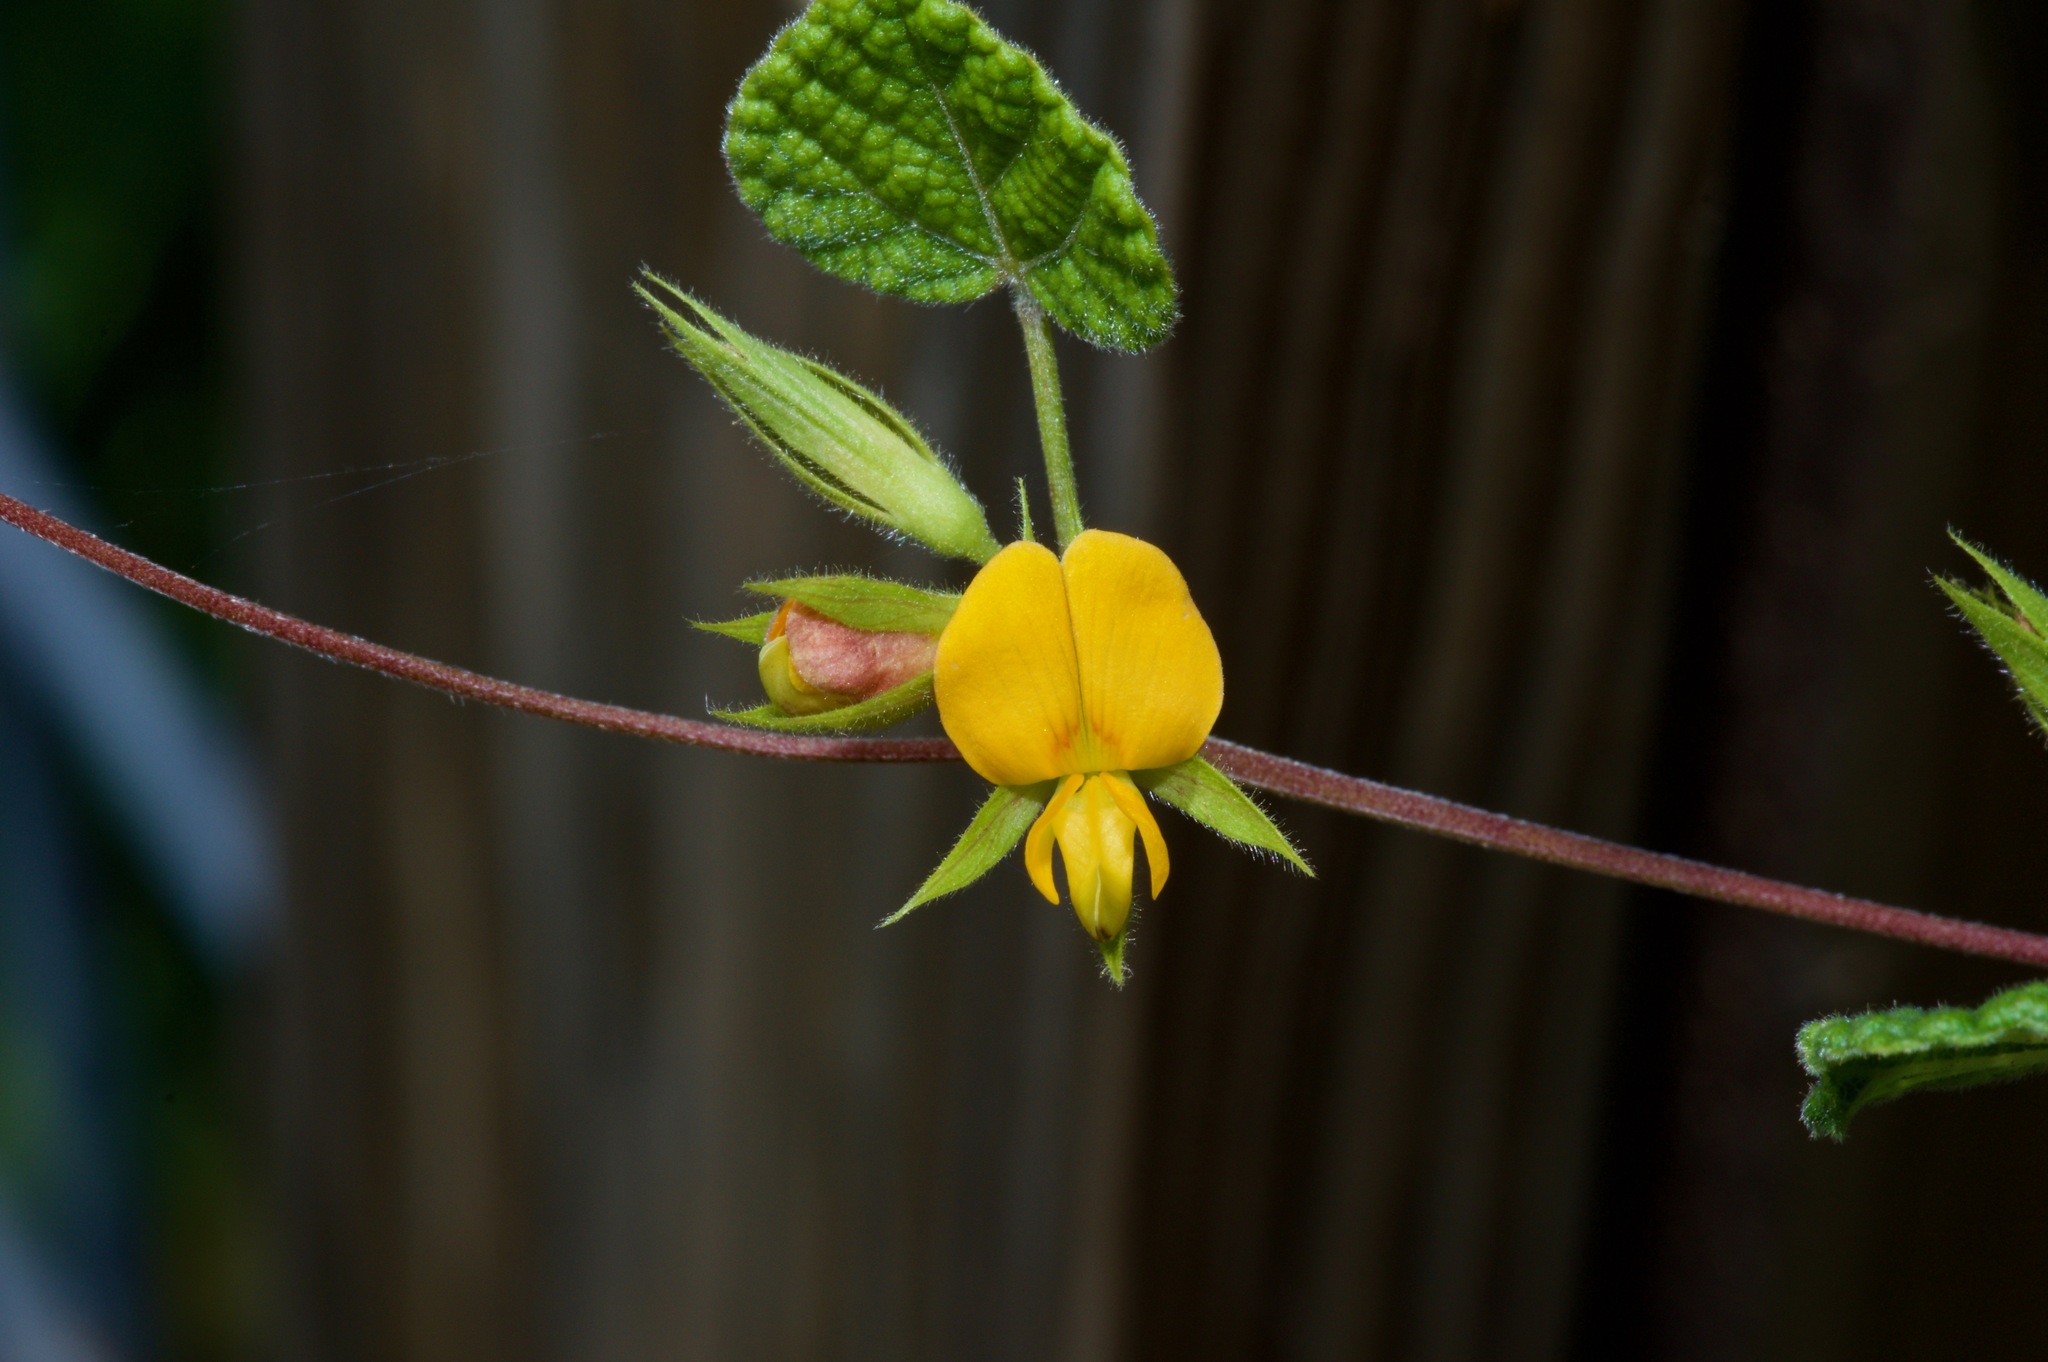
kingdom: Plantae
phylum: Tracheophyta
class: Magnoliopsida
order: Fabales
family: Fabaceae
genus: Rhynchosia
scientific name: Rhynchosia americana
